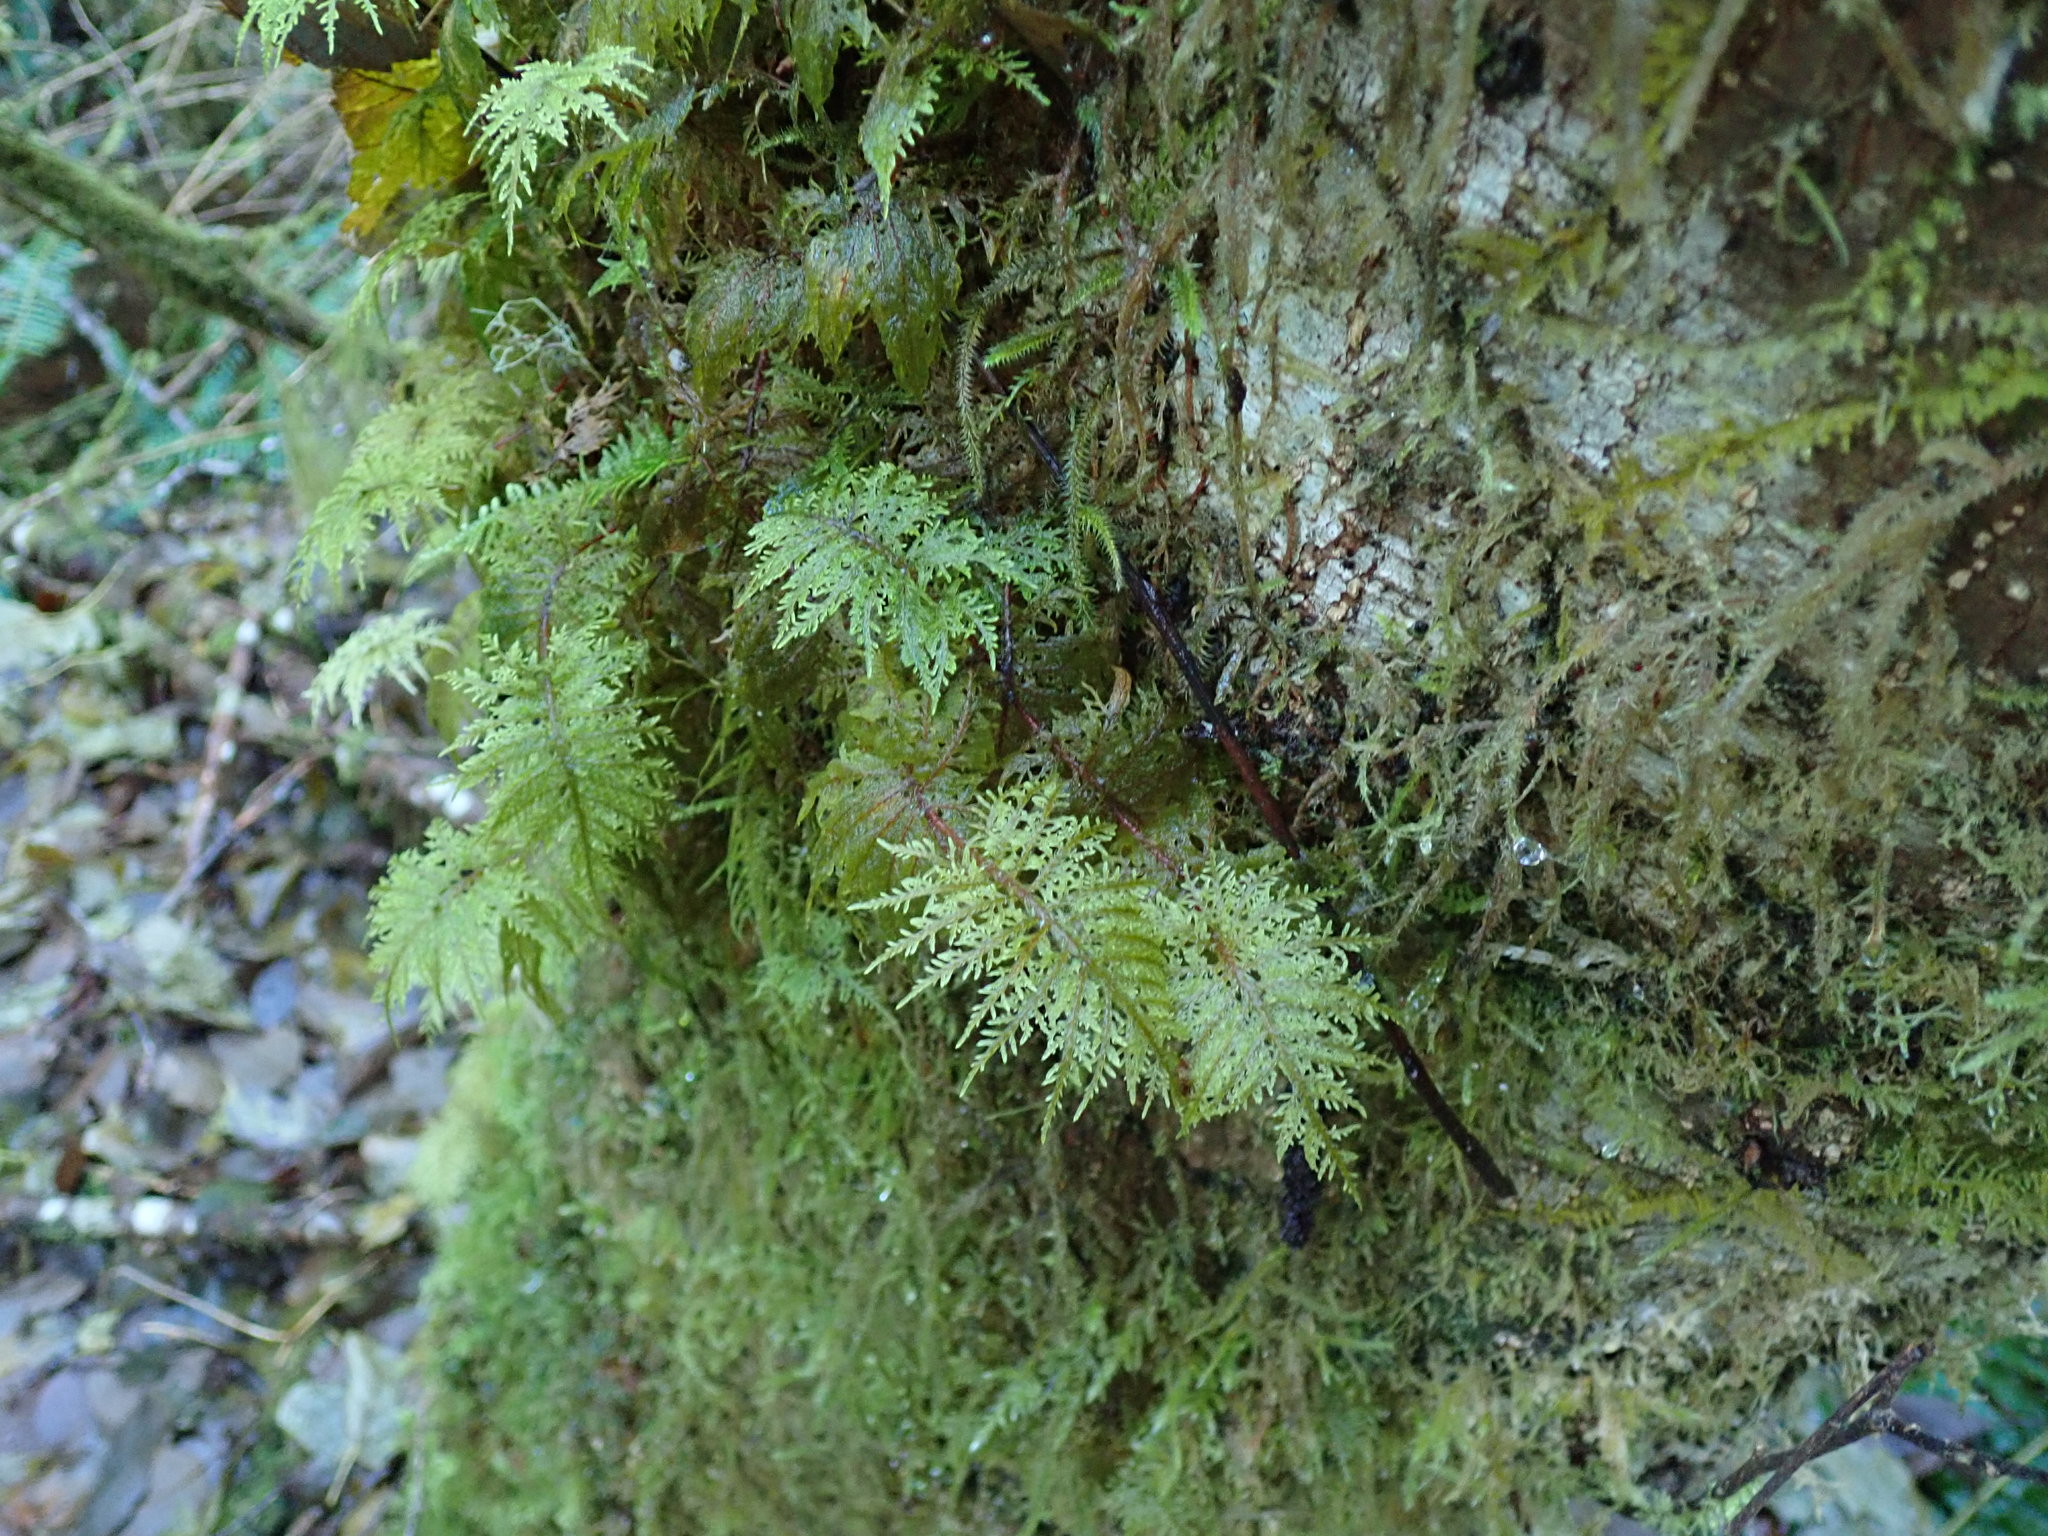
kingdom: Plantae
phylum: Bryophyta
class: Bryopsida
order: Hypnales
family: Hylocomiaceae
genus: Hylocomium
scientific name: Hylocomium splendens
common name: Stairstep moss
